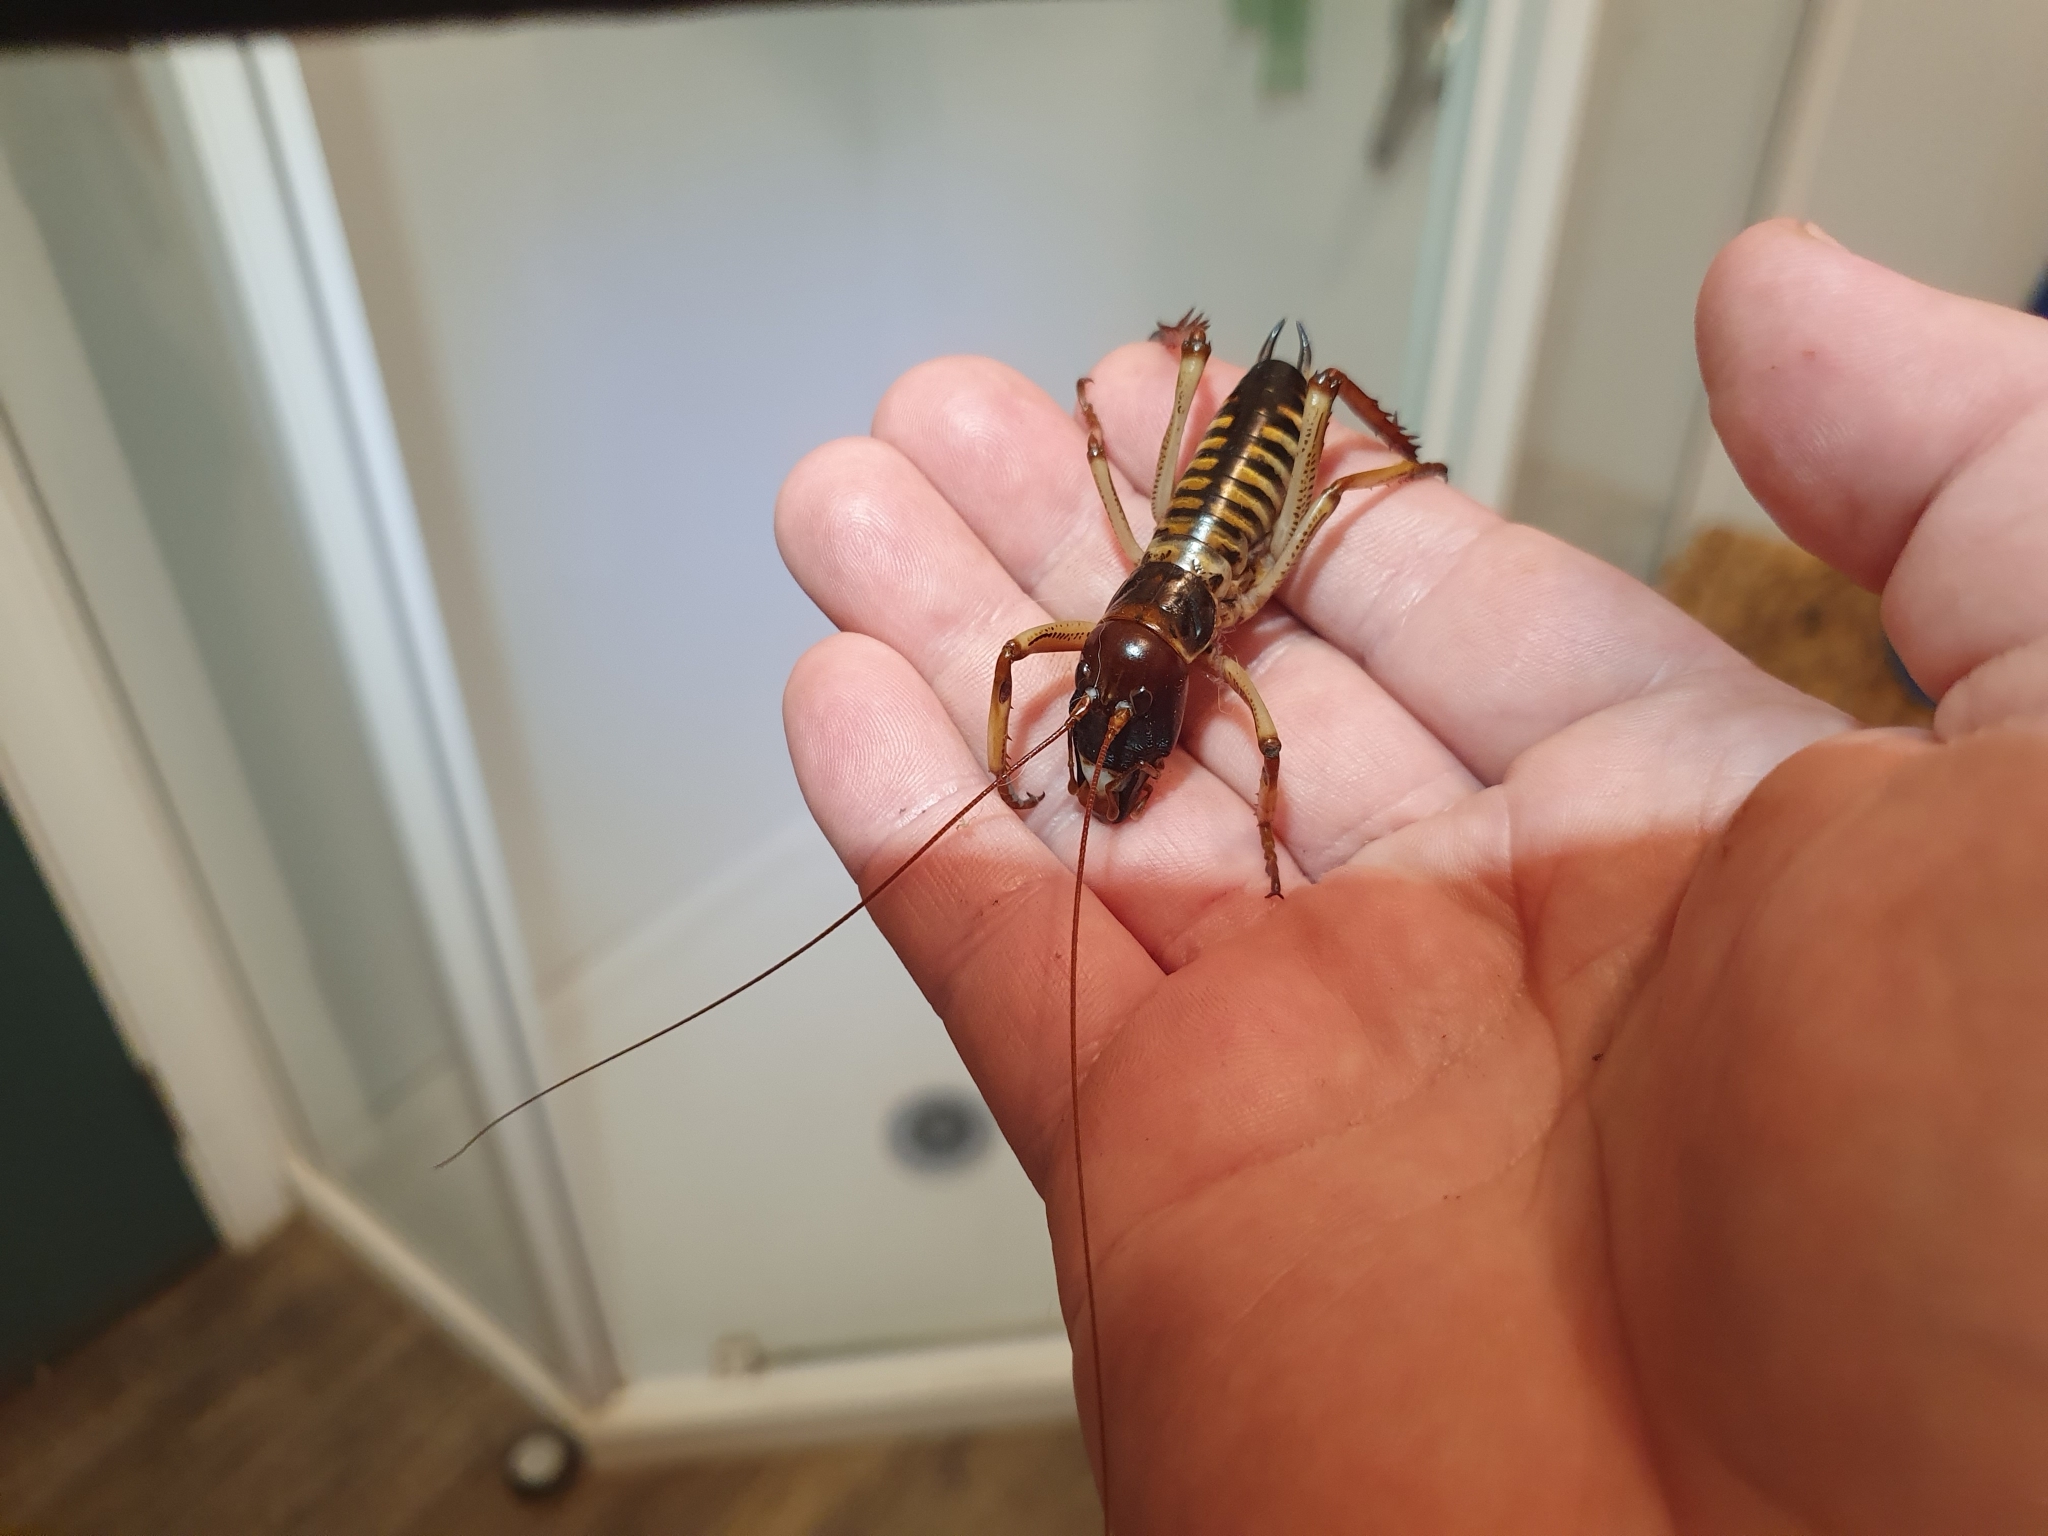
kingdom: Animalia
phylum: Arthropoda
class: Insecta
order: Orthoptera
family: Anostostomatidae
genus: Hemideina
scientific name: Hemideina crassidens
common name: Wellington tree weta
